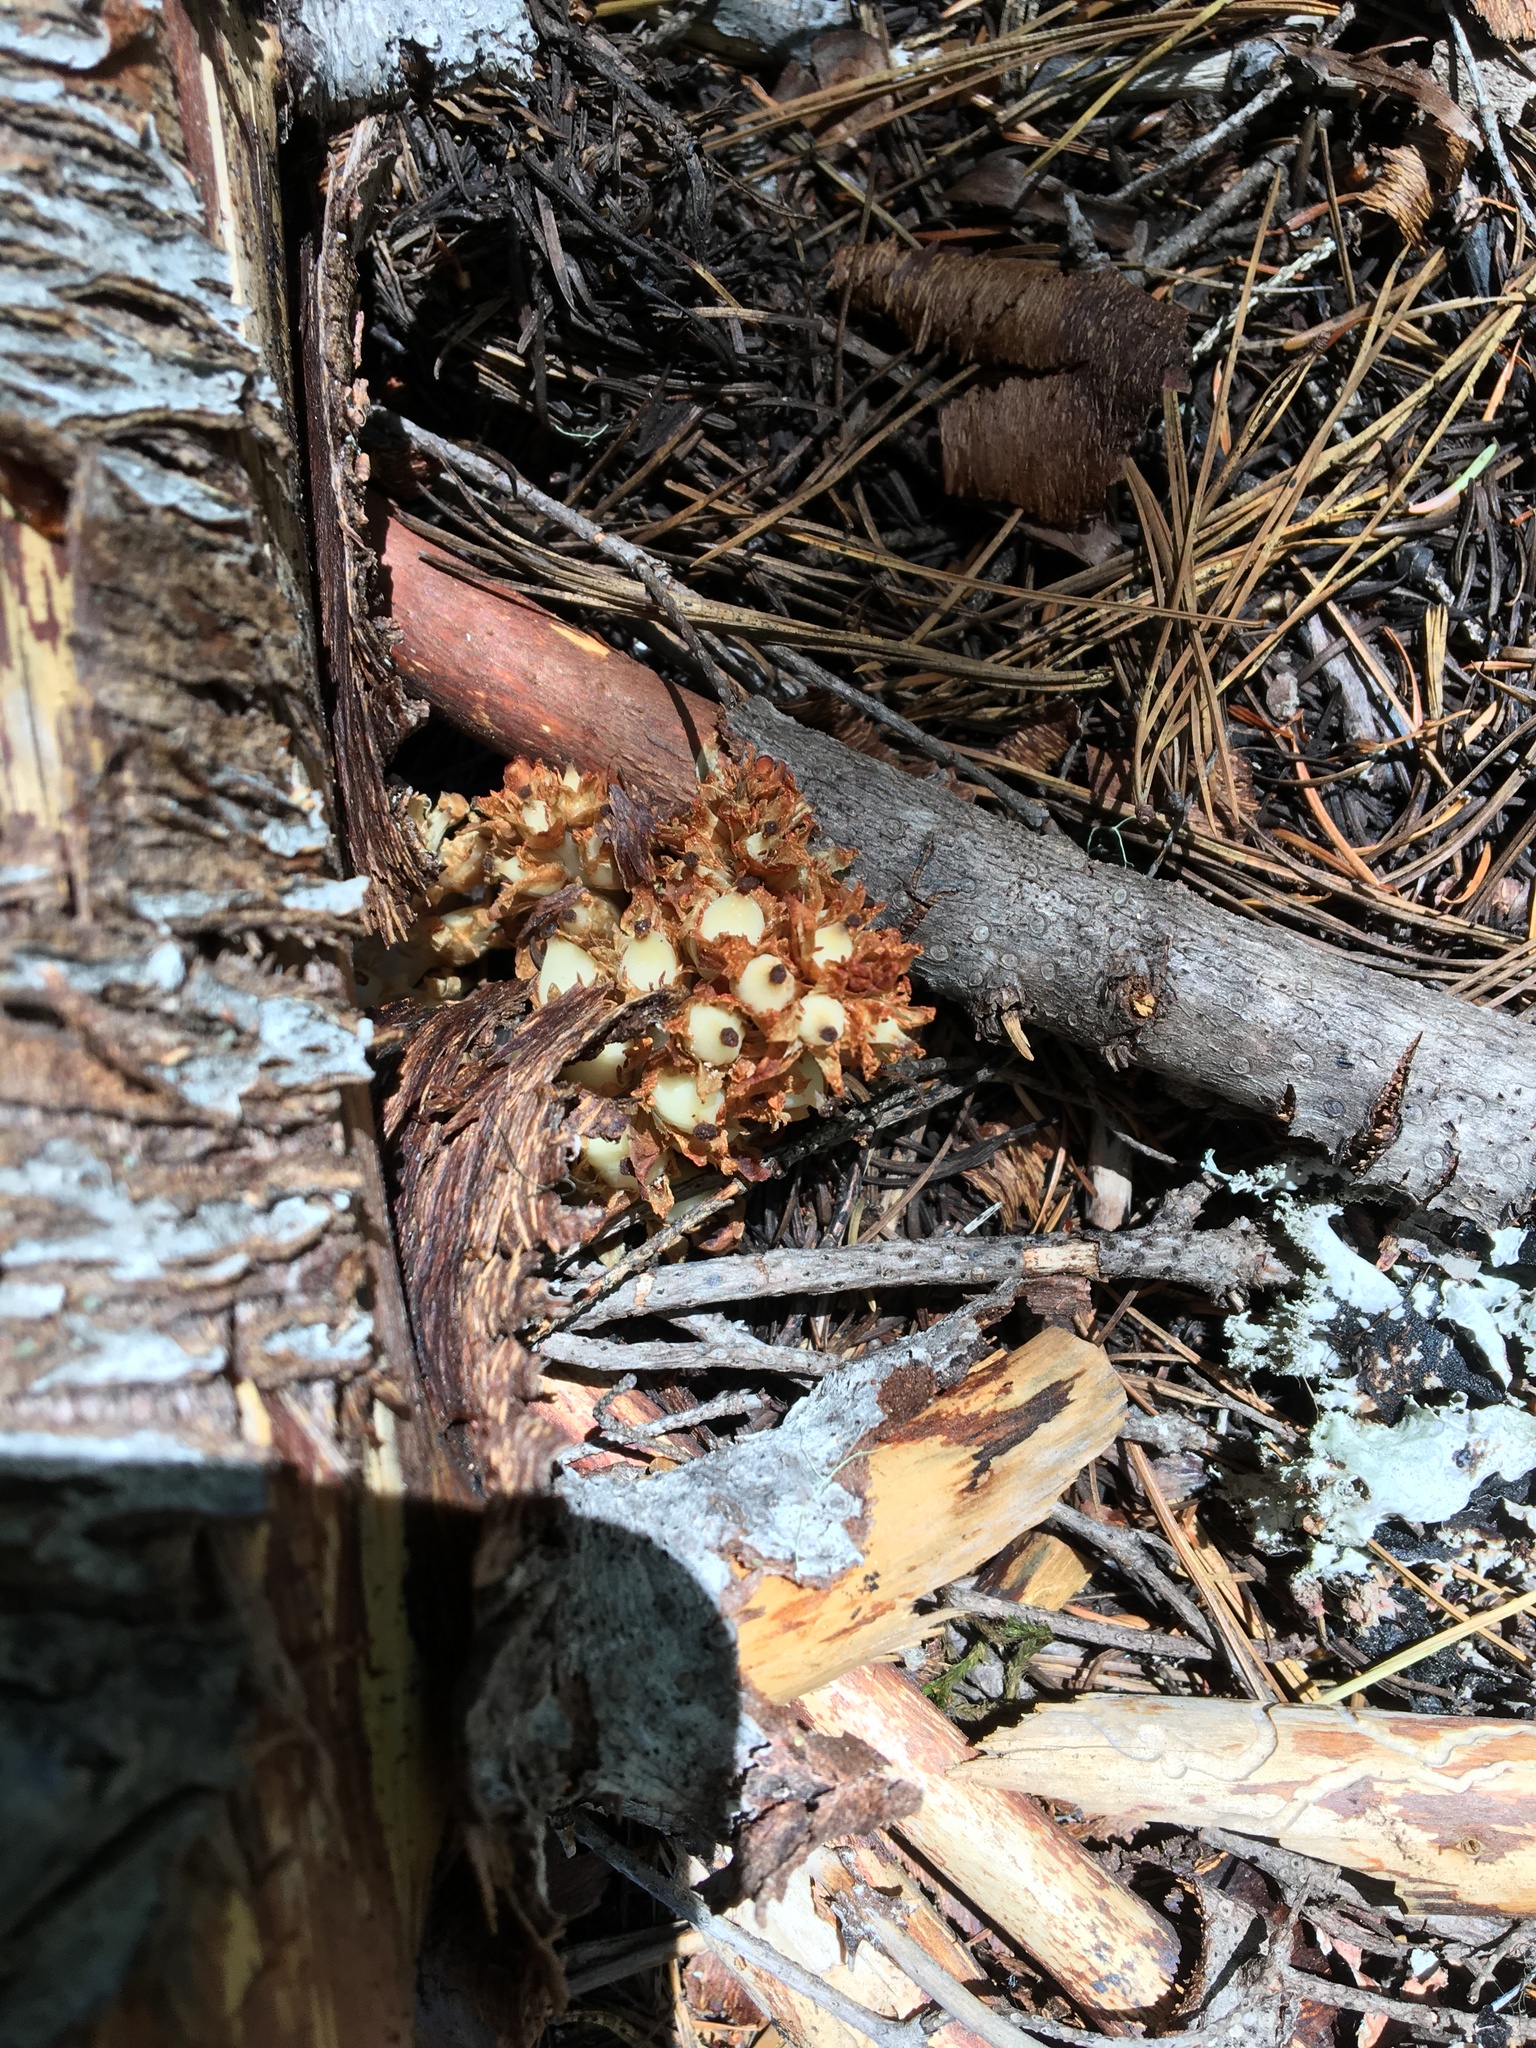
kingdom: Plantae
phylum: Tracheophyta
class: Magnoliopsida
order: Ericales
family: Ericaceae
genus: Hemitomes
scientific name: Hemitomes congestum
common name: Cone plant
